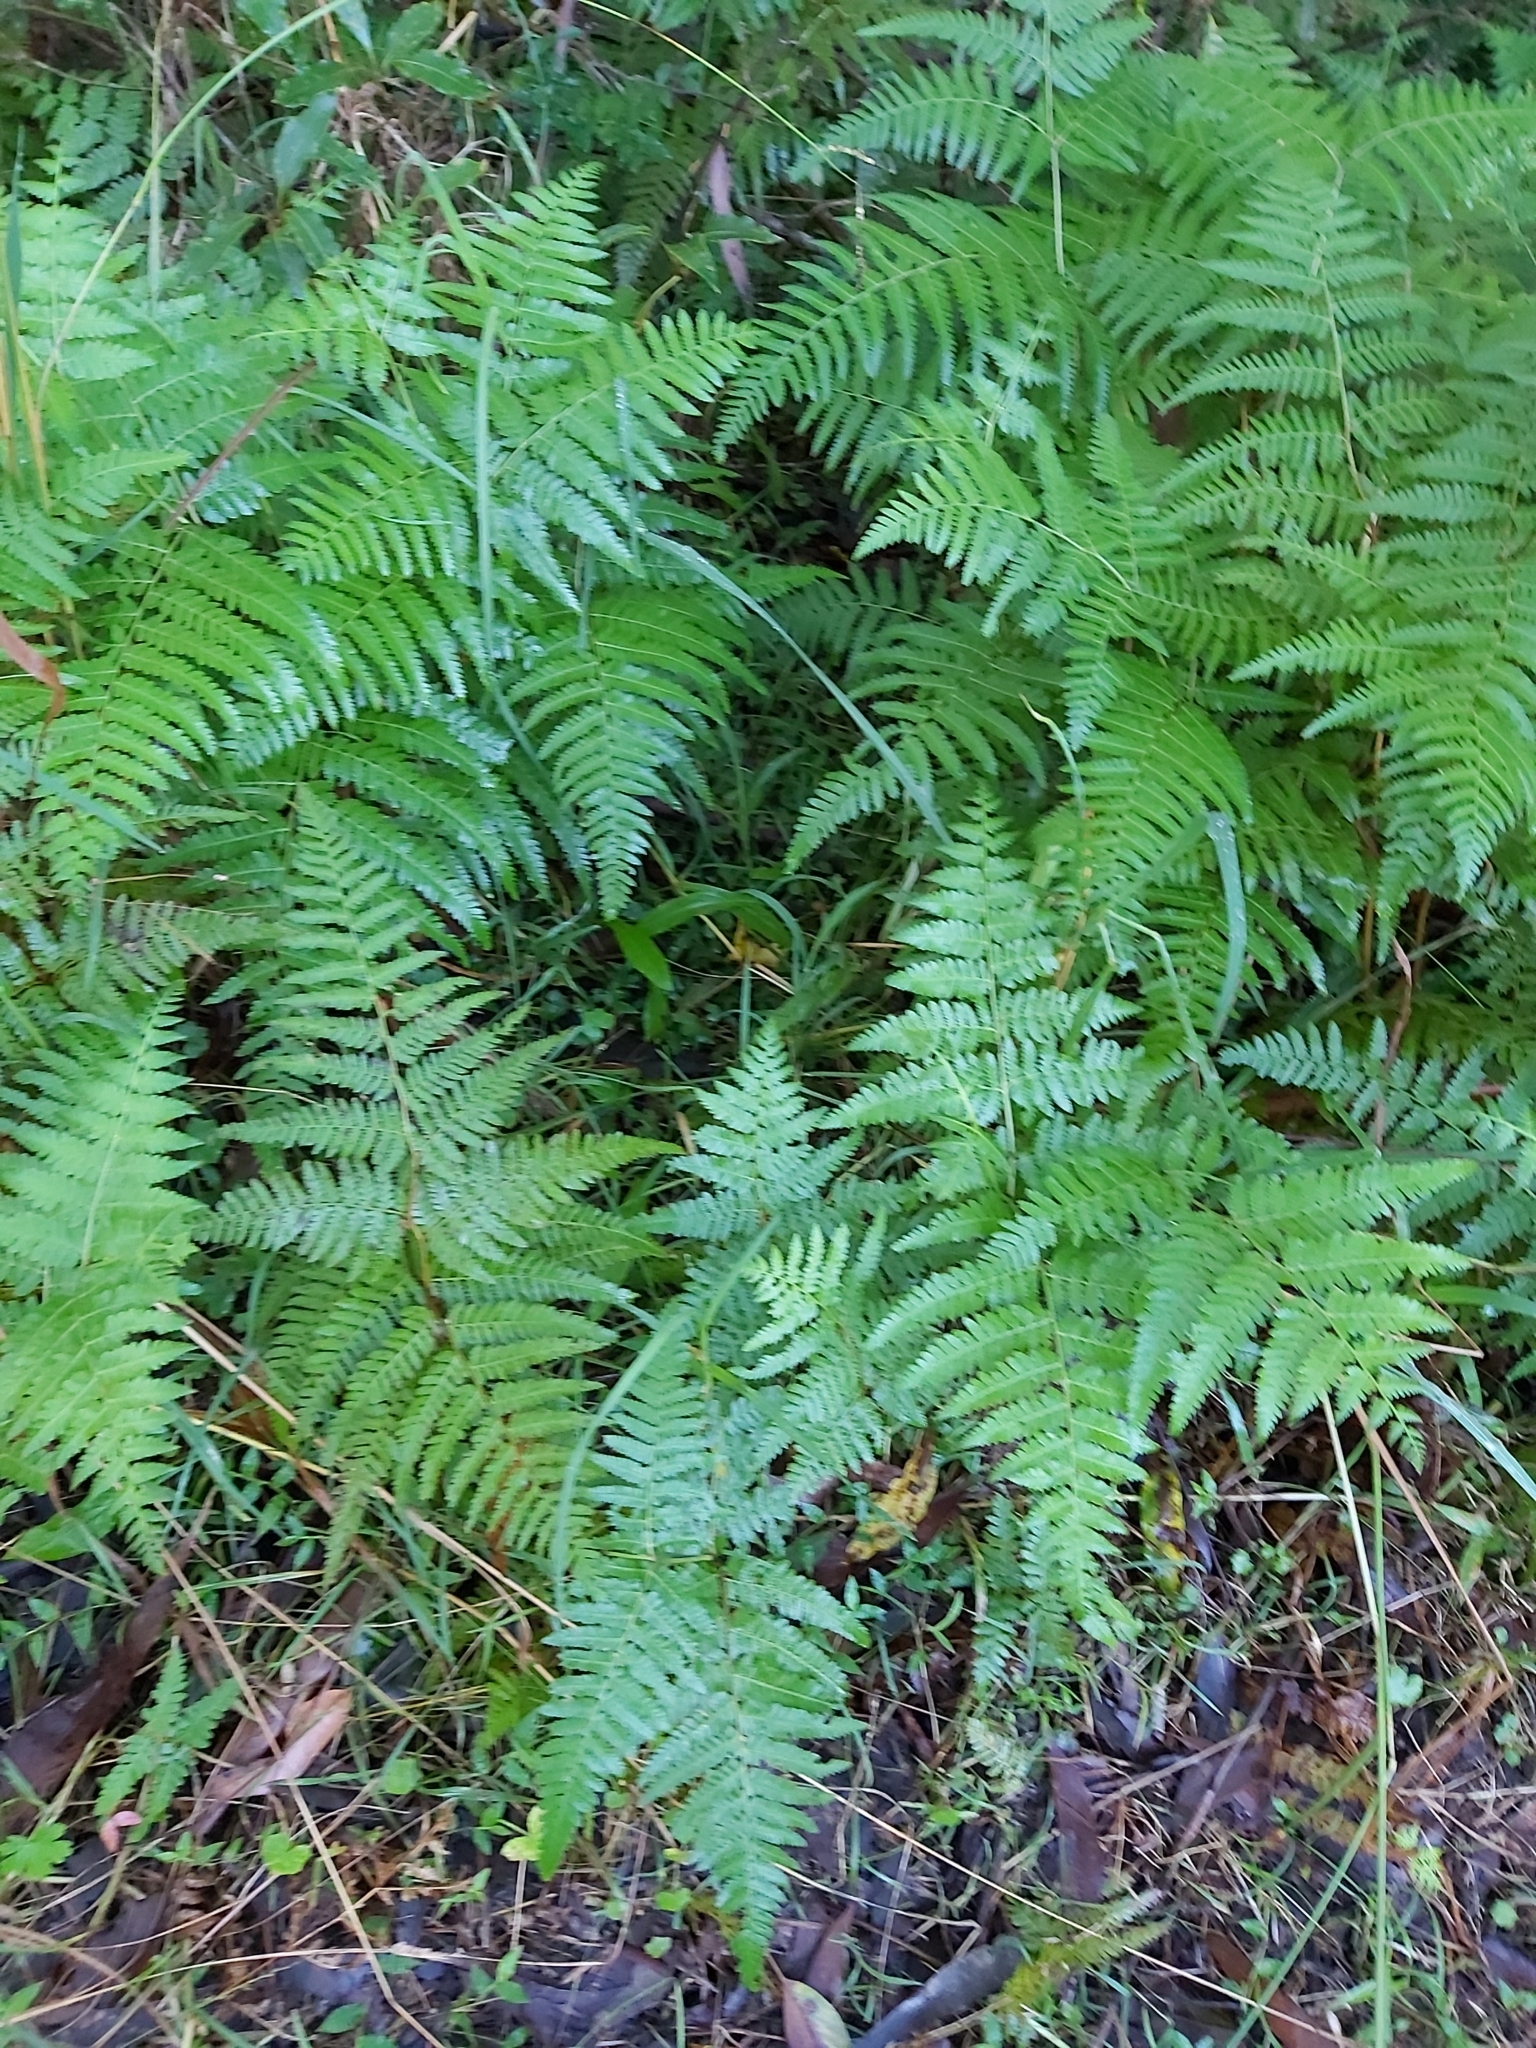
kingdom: Plantae
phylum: Tracheophyta
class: Polypodiopsida
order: Polypodiales
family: Dennstaedtiaceae
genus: Hypolepis
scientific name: Hypolepis muelleri
